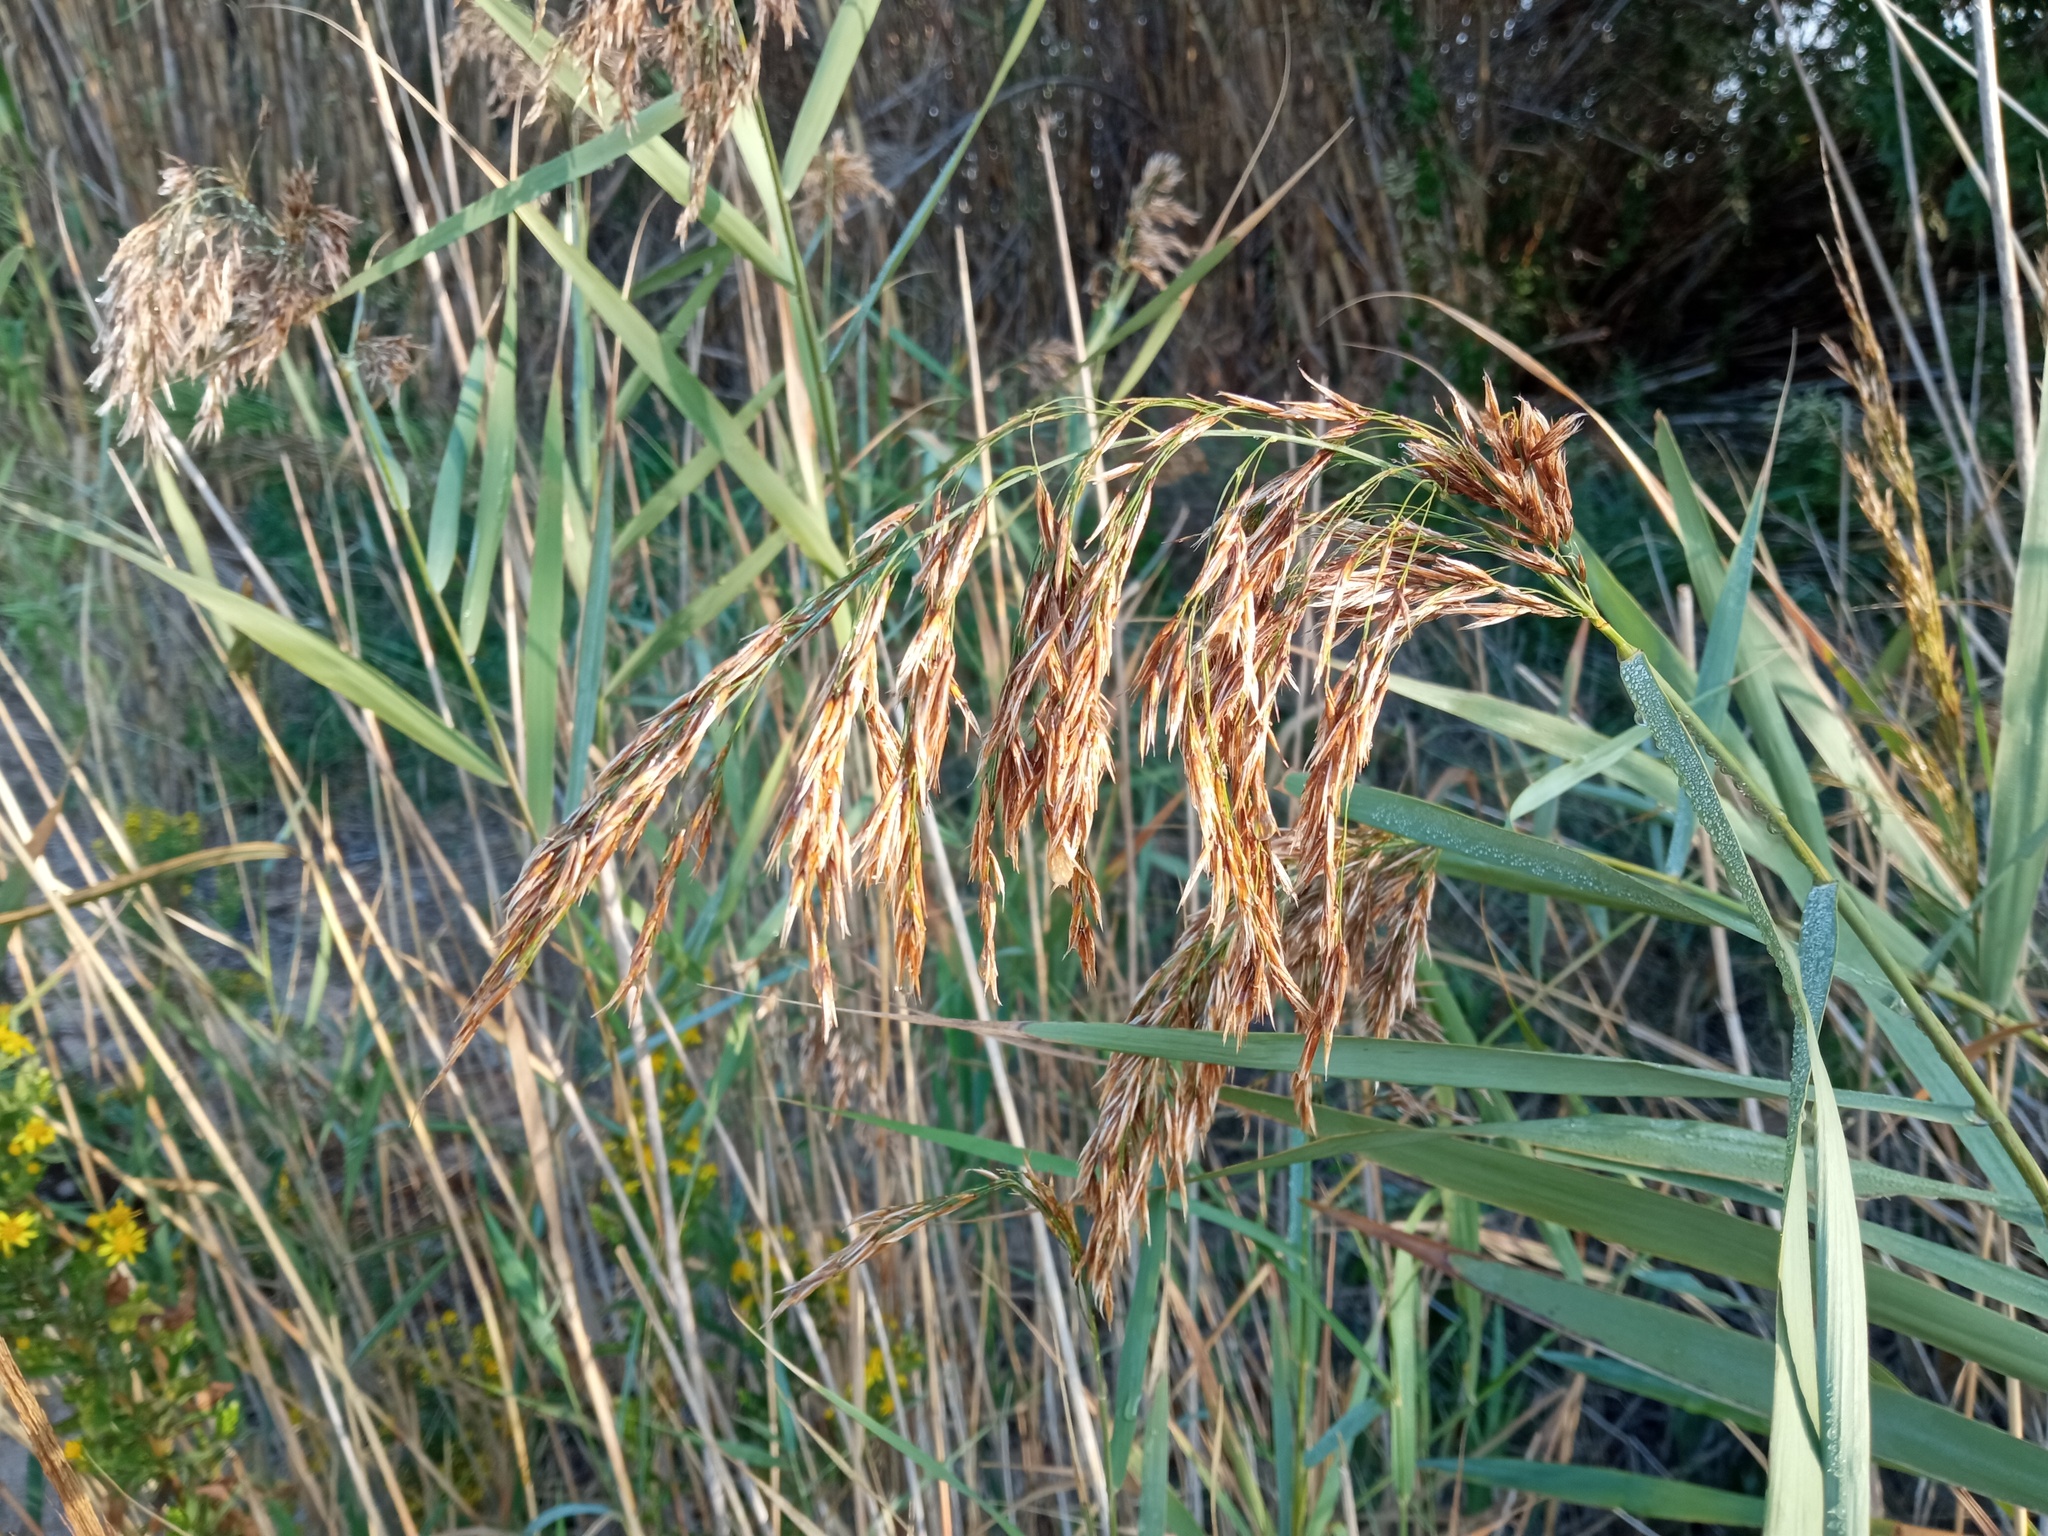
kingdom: Plantae
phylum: Tracheophyta
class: Liliopsida
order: Poales
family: Poaceae
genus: Phragmites
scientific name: Phragmites australis
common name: Common reed
